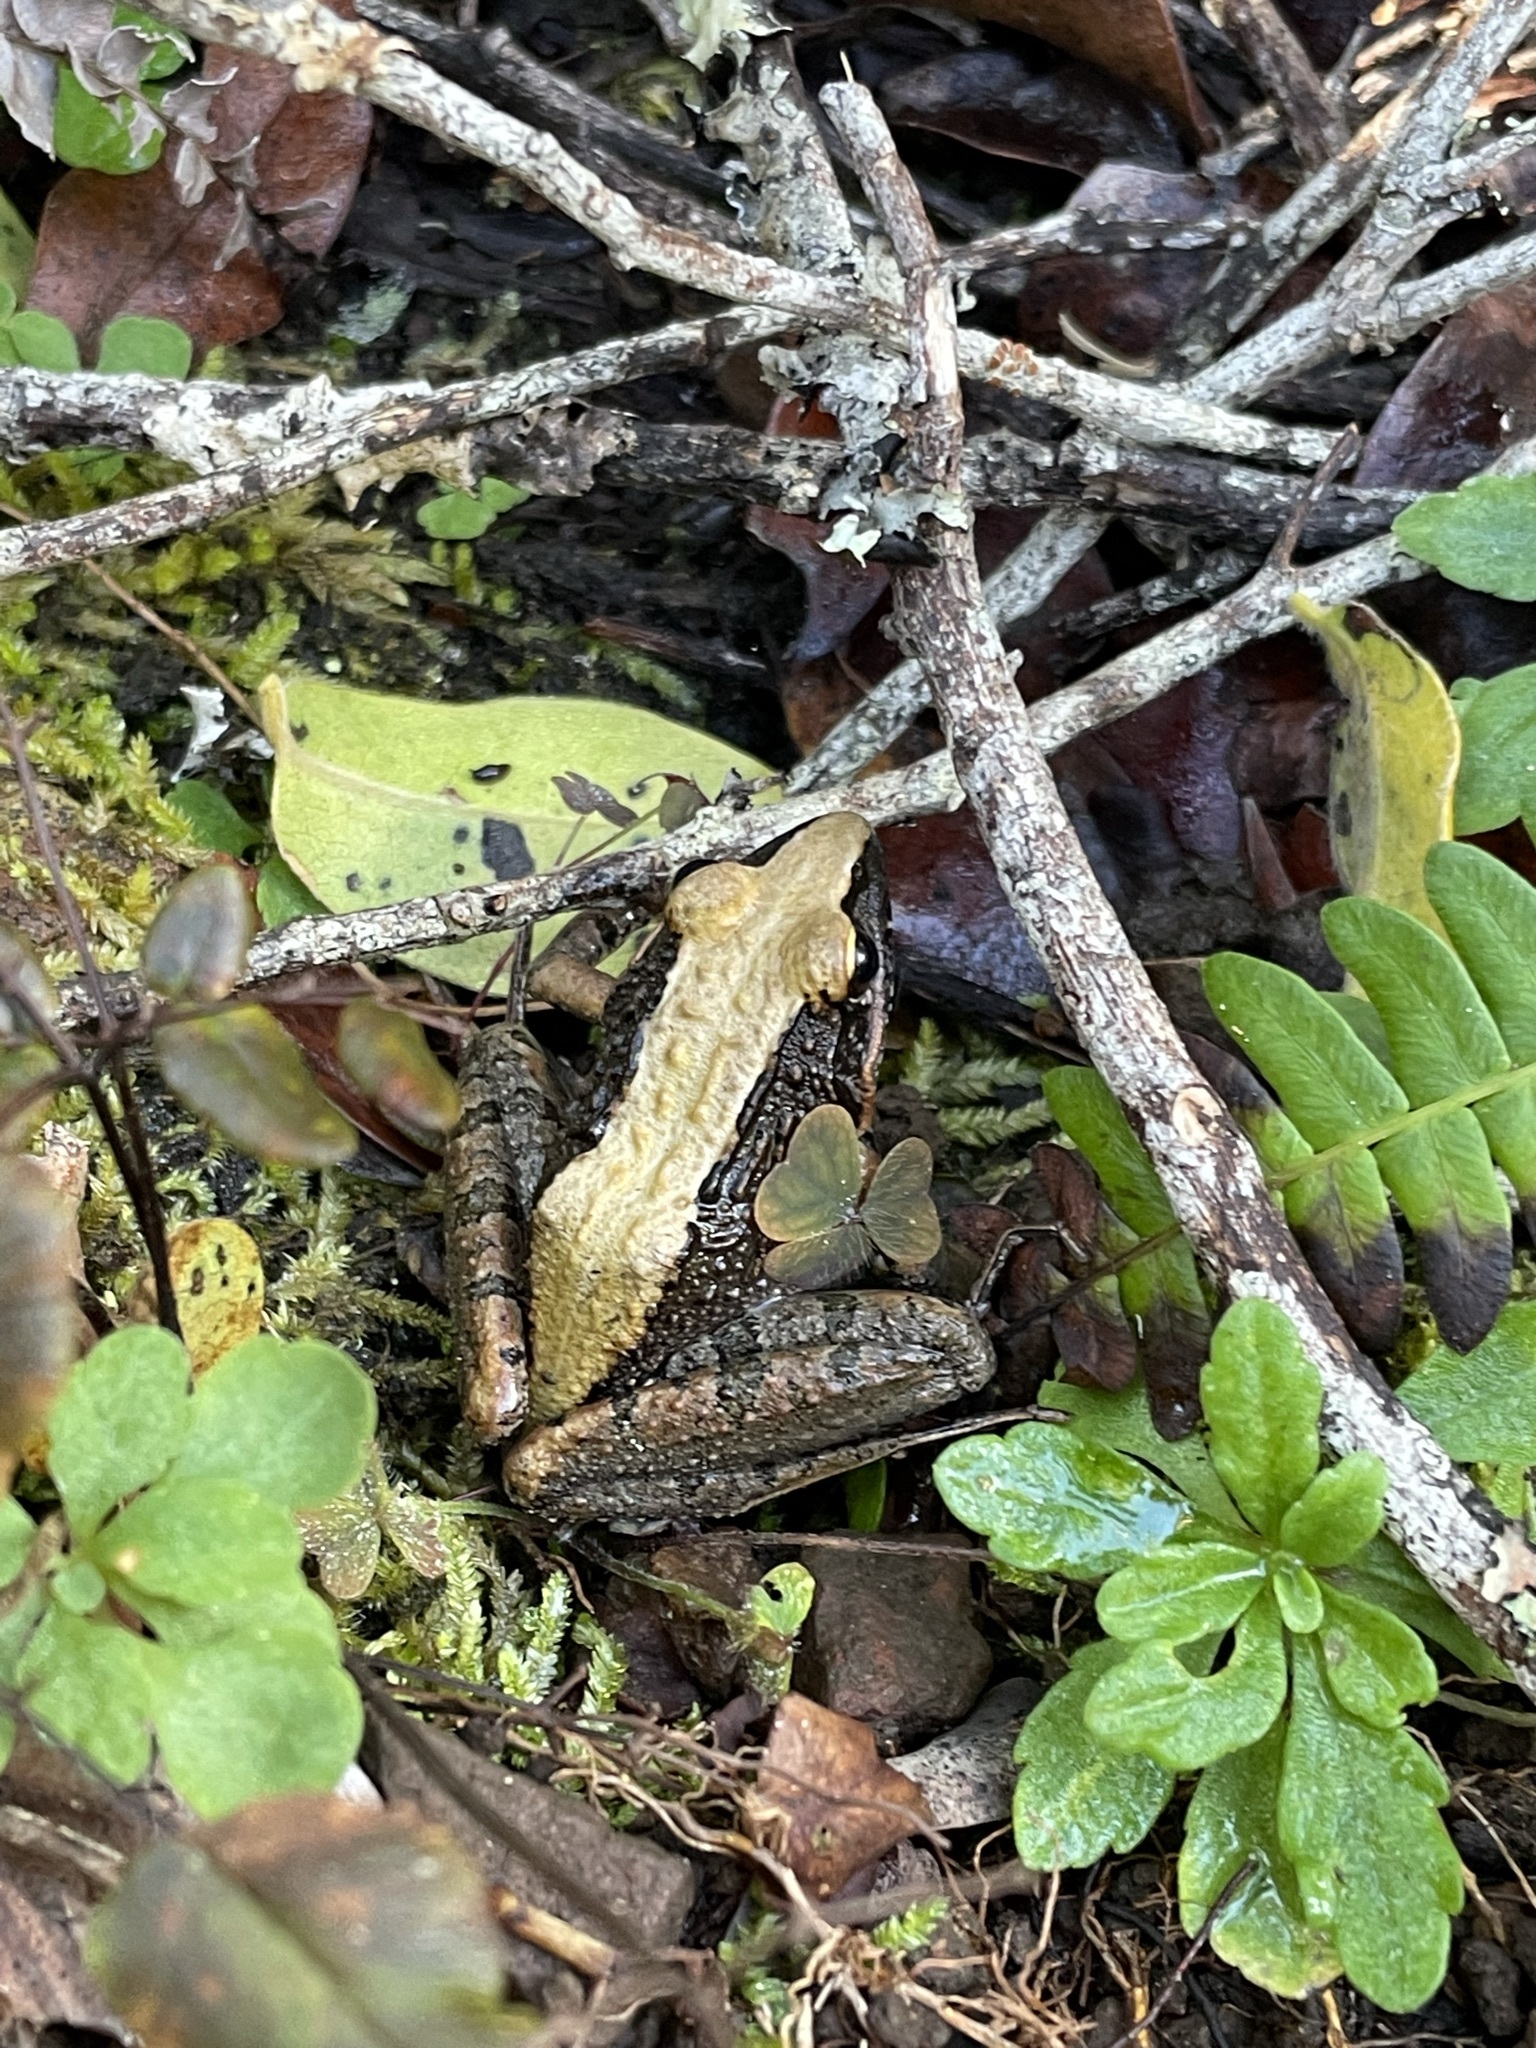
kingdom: Animalia
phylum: Chordata
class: Amphibia
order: Anura
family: Pyxicephalidae
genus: Strongylopus
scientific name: Strongylopus grayii
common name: Gray's stream frog
